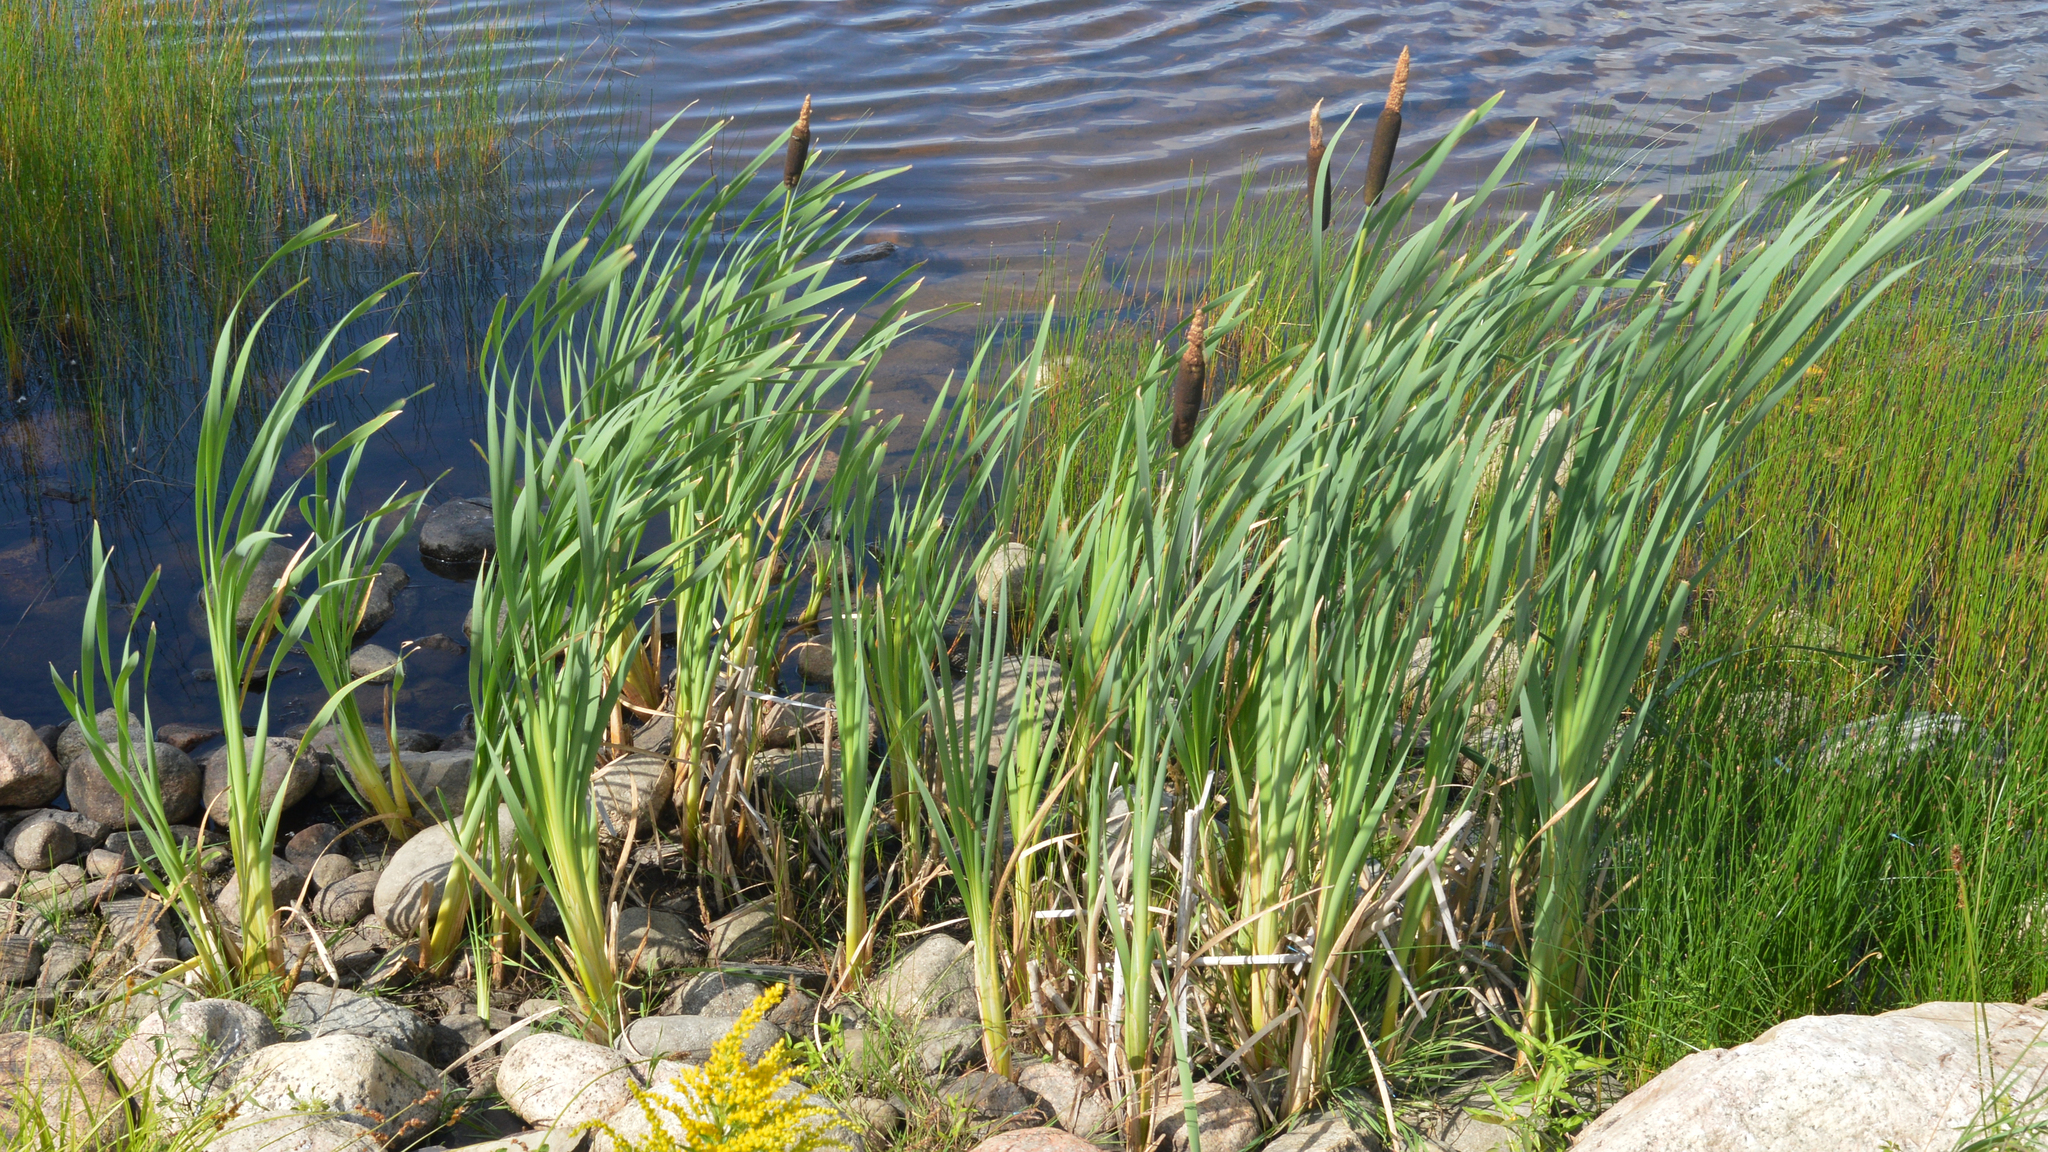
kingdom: Plantae
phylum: Tracheophyta
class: Liliopsida
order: Poales
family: Typhaceae
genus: Typha
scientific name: Typha latifolia
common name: Broadleaf cattail
